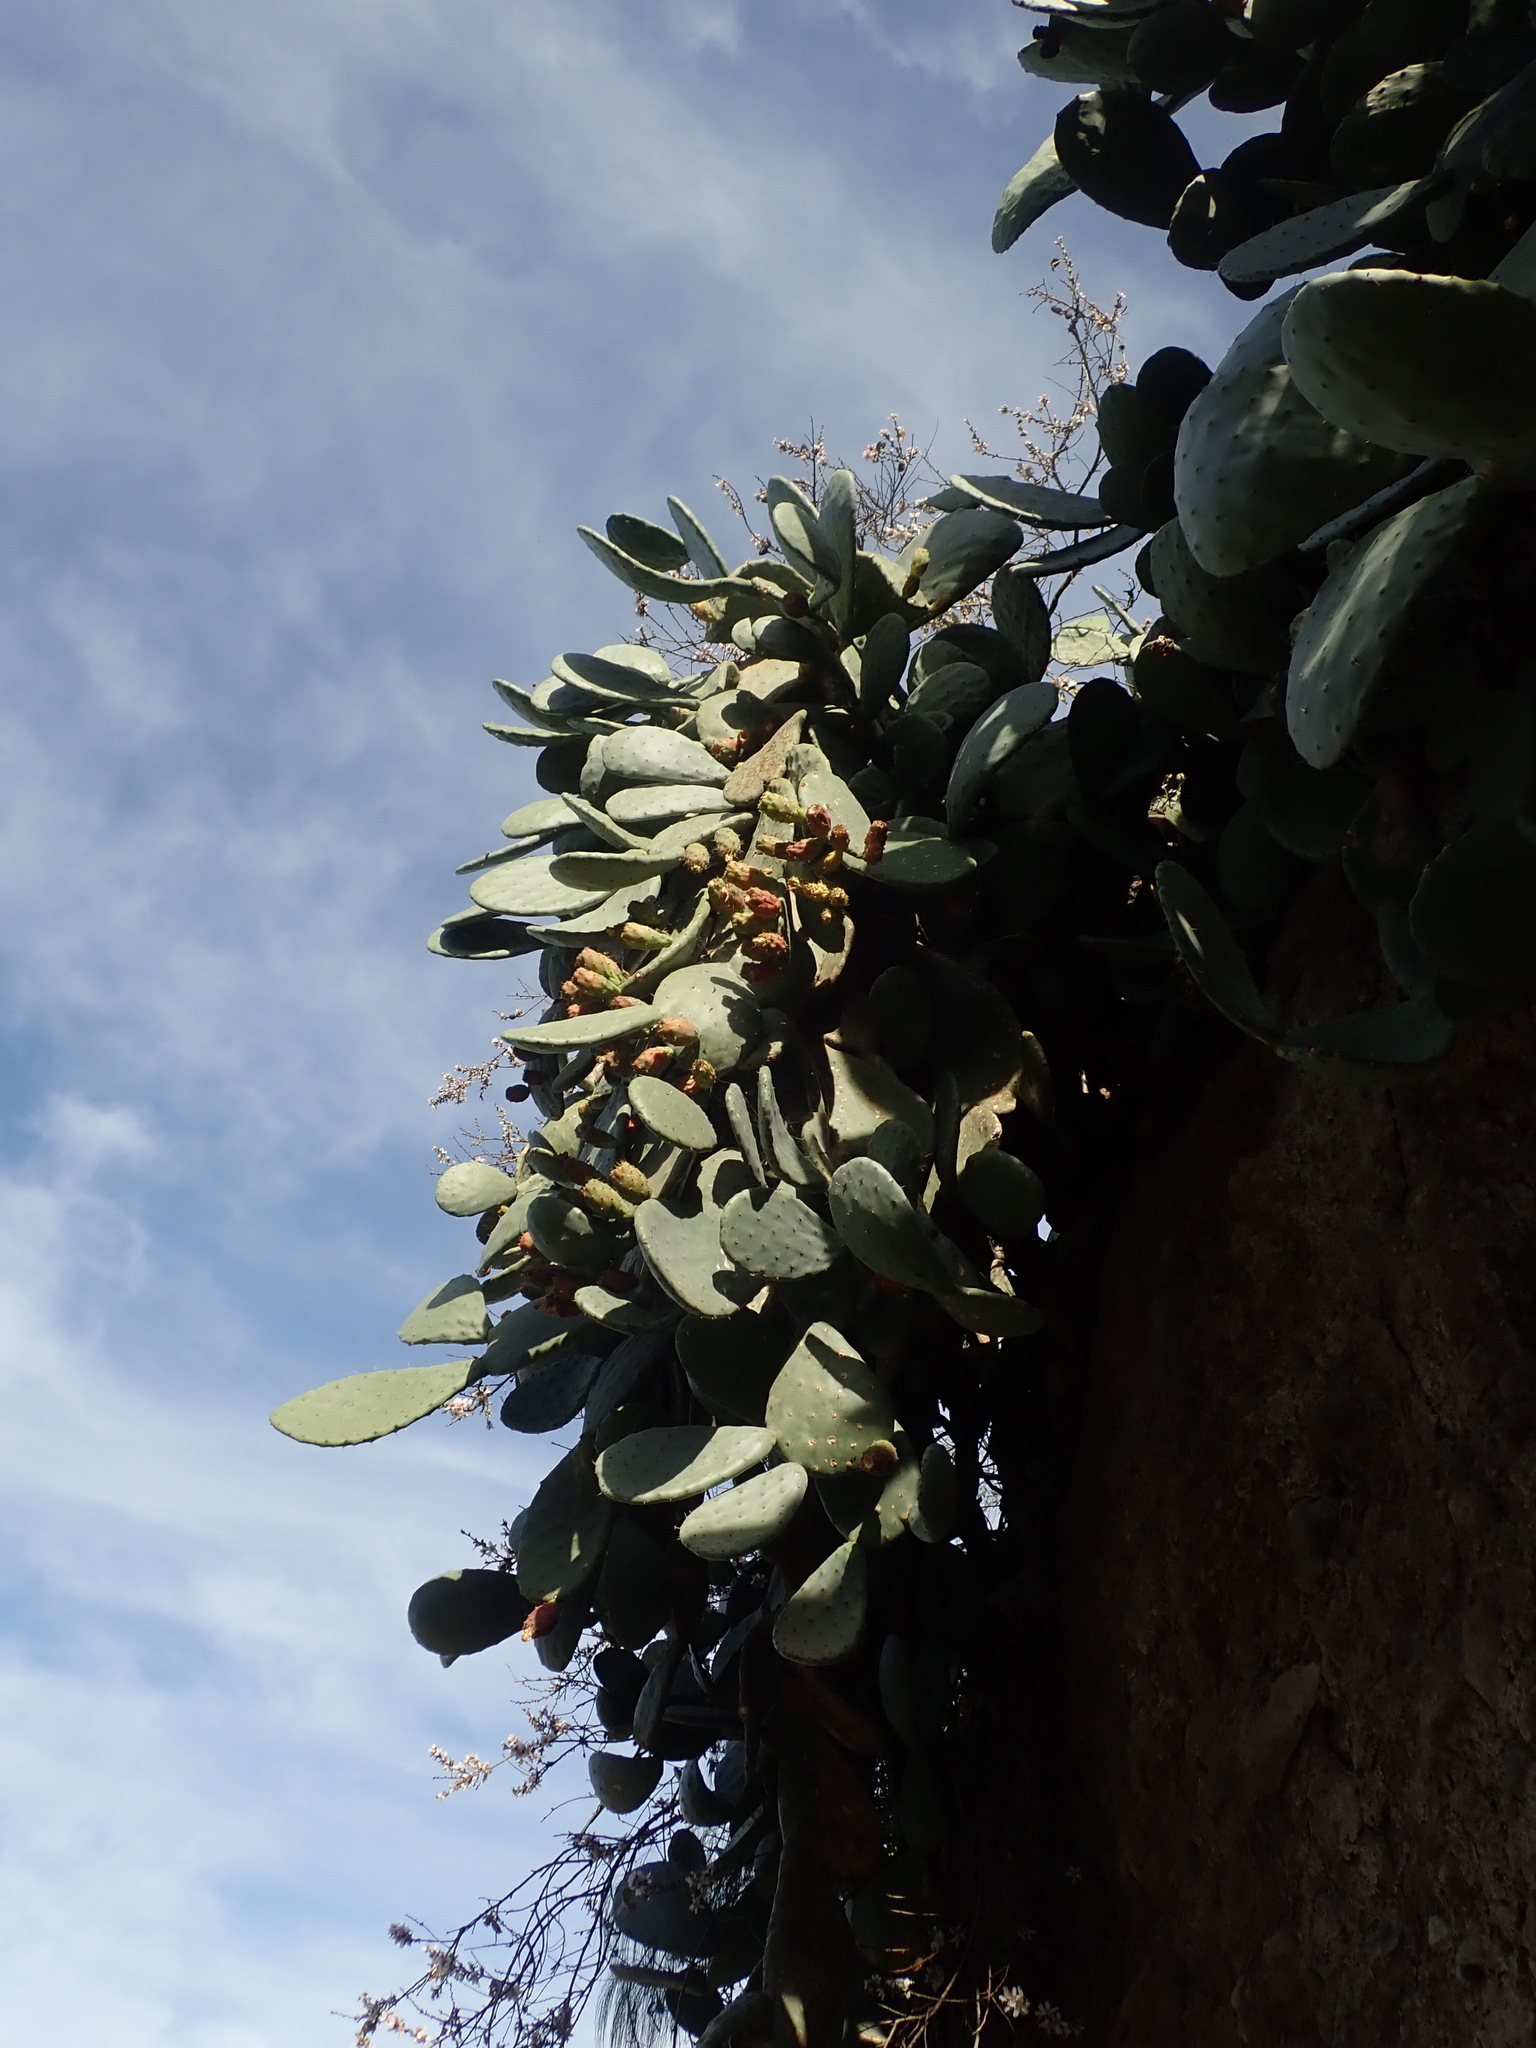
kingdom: Plantae
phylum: Tracheophyta
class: Magnoliopsida
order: Caryophyllales
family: Cactaceae
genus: Opuntia
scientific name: Opuntia ficus-indica
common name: Barbary fig
